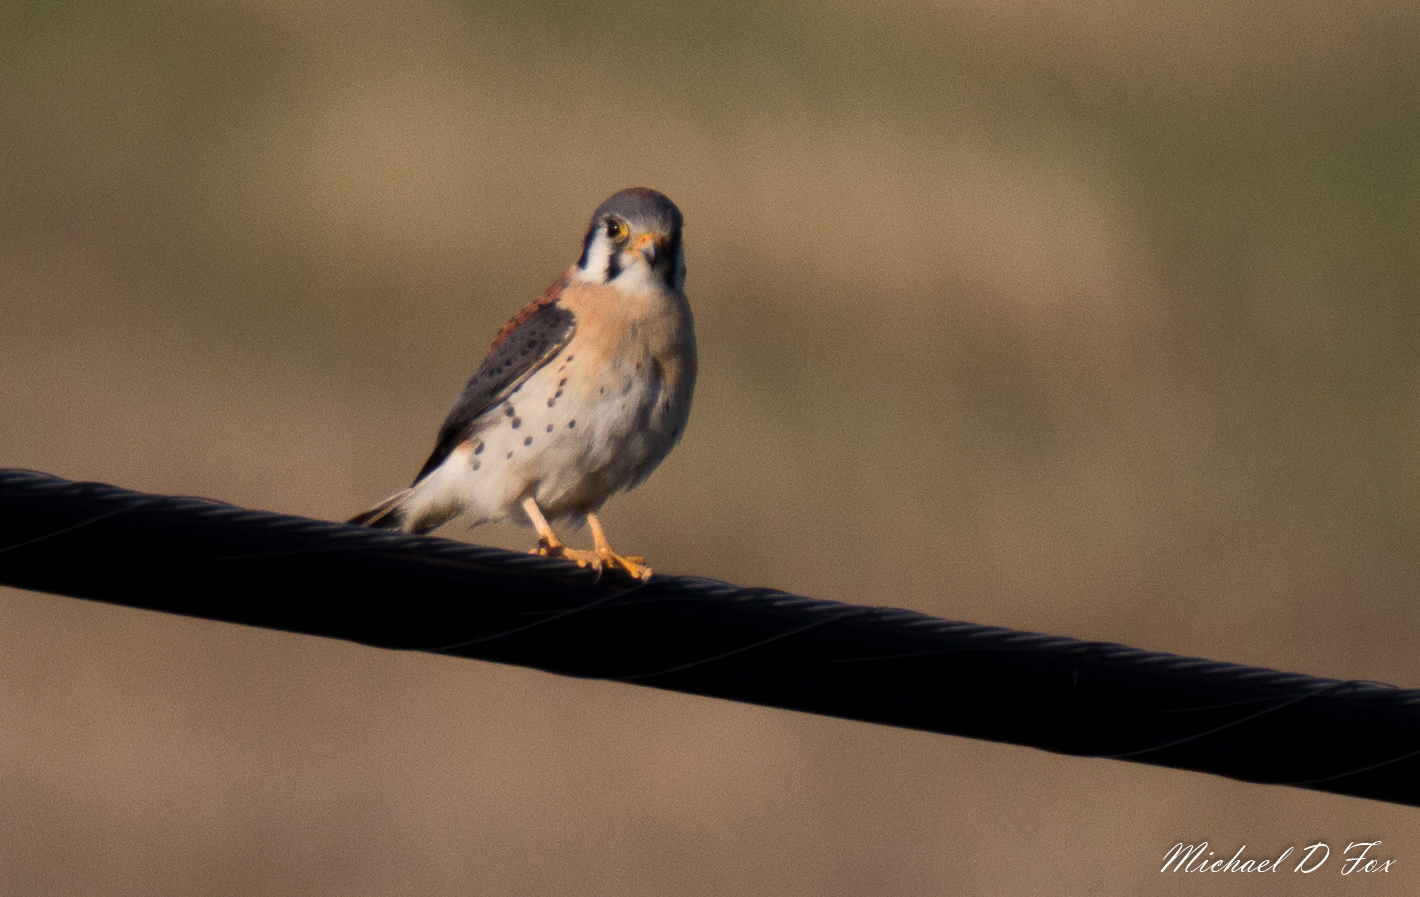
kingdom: Animalia
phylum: Chordata
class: Aves
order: Falconiformes
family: Falconidae
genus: Falco
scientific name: Falco sparverius
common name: American kestrel
